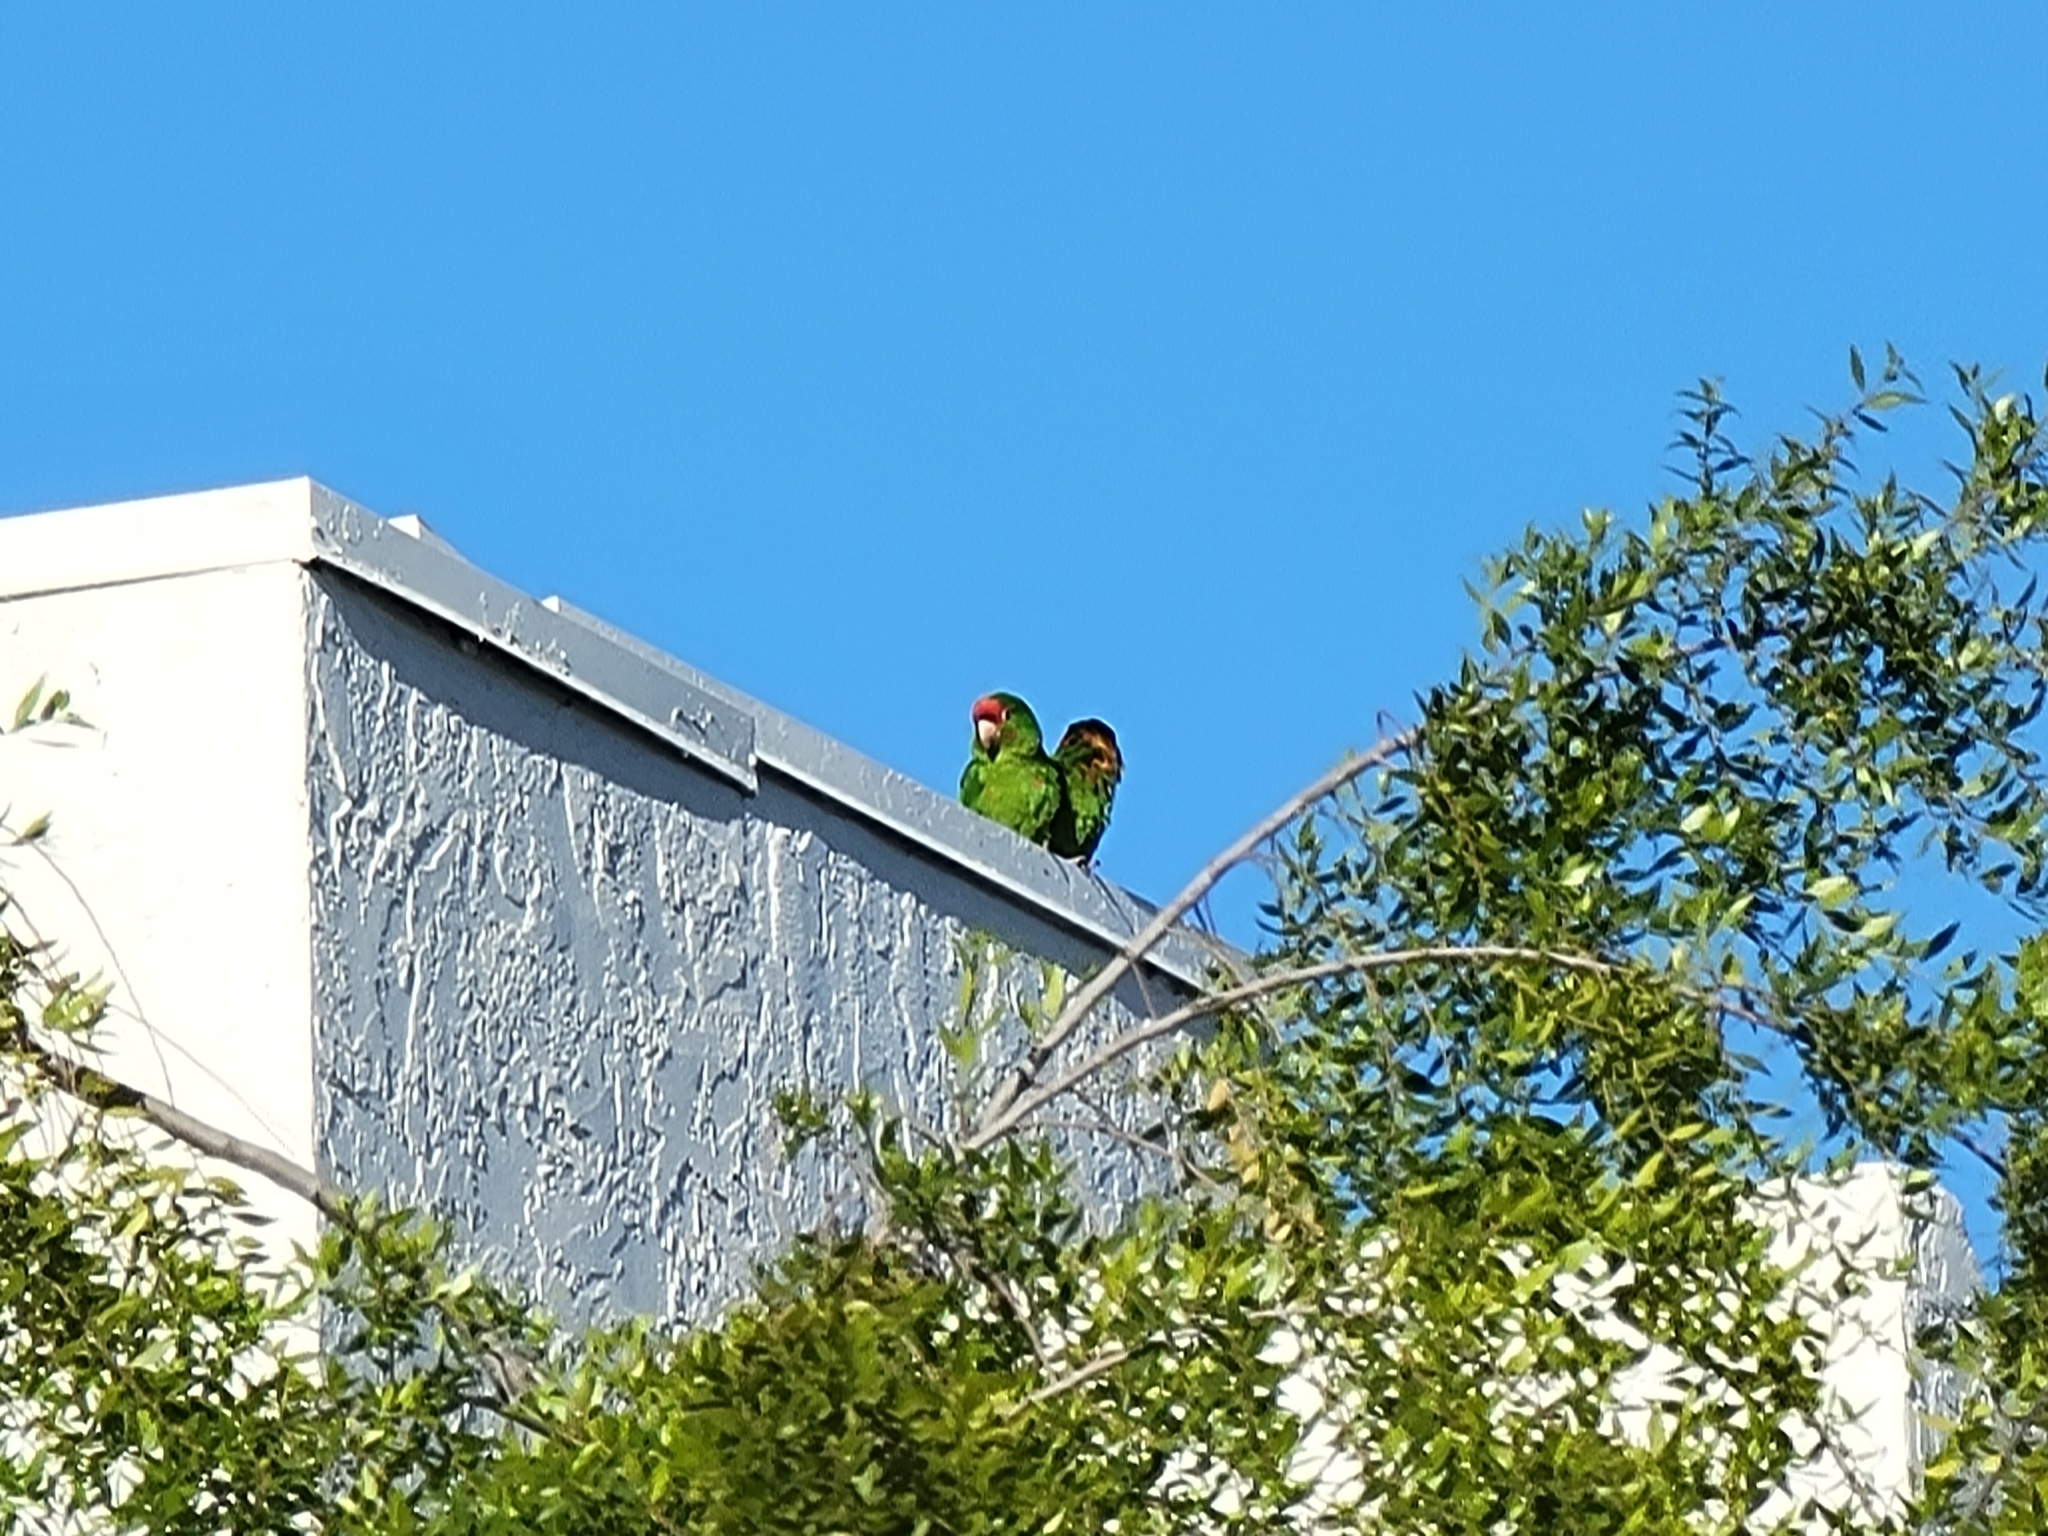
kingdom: Animalia
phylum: Chordata
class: Aves
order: Psittaciformes
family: Psittacidae
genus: Aratinga
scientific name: Aratinga mitrata
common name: Mitred parakeet
